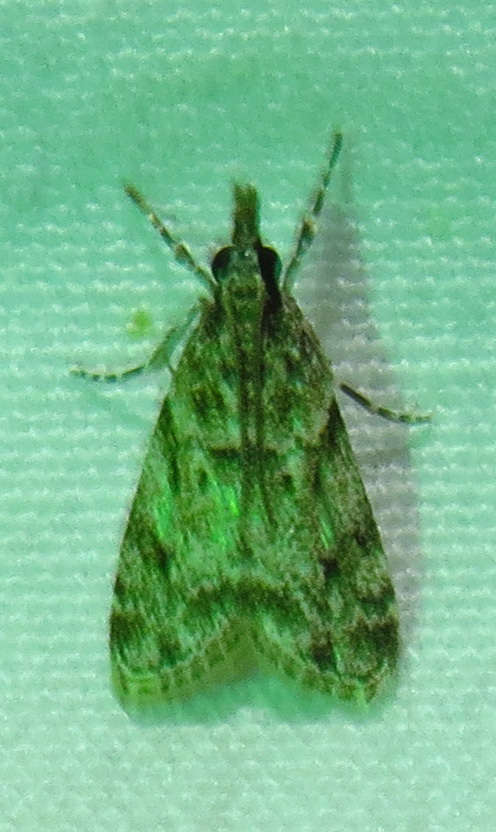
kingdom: Animalia
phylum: Arthropoda
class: Insecta
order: Lepidoptera
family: Crambidae
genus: Eudonia
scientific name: Eudonia heterosalis
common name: Mcdunnough's eudonia
